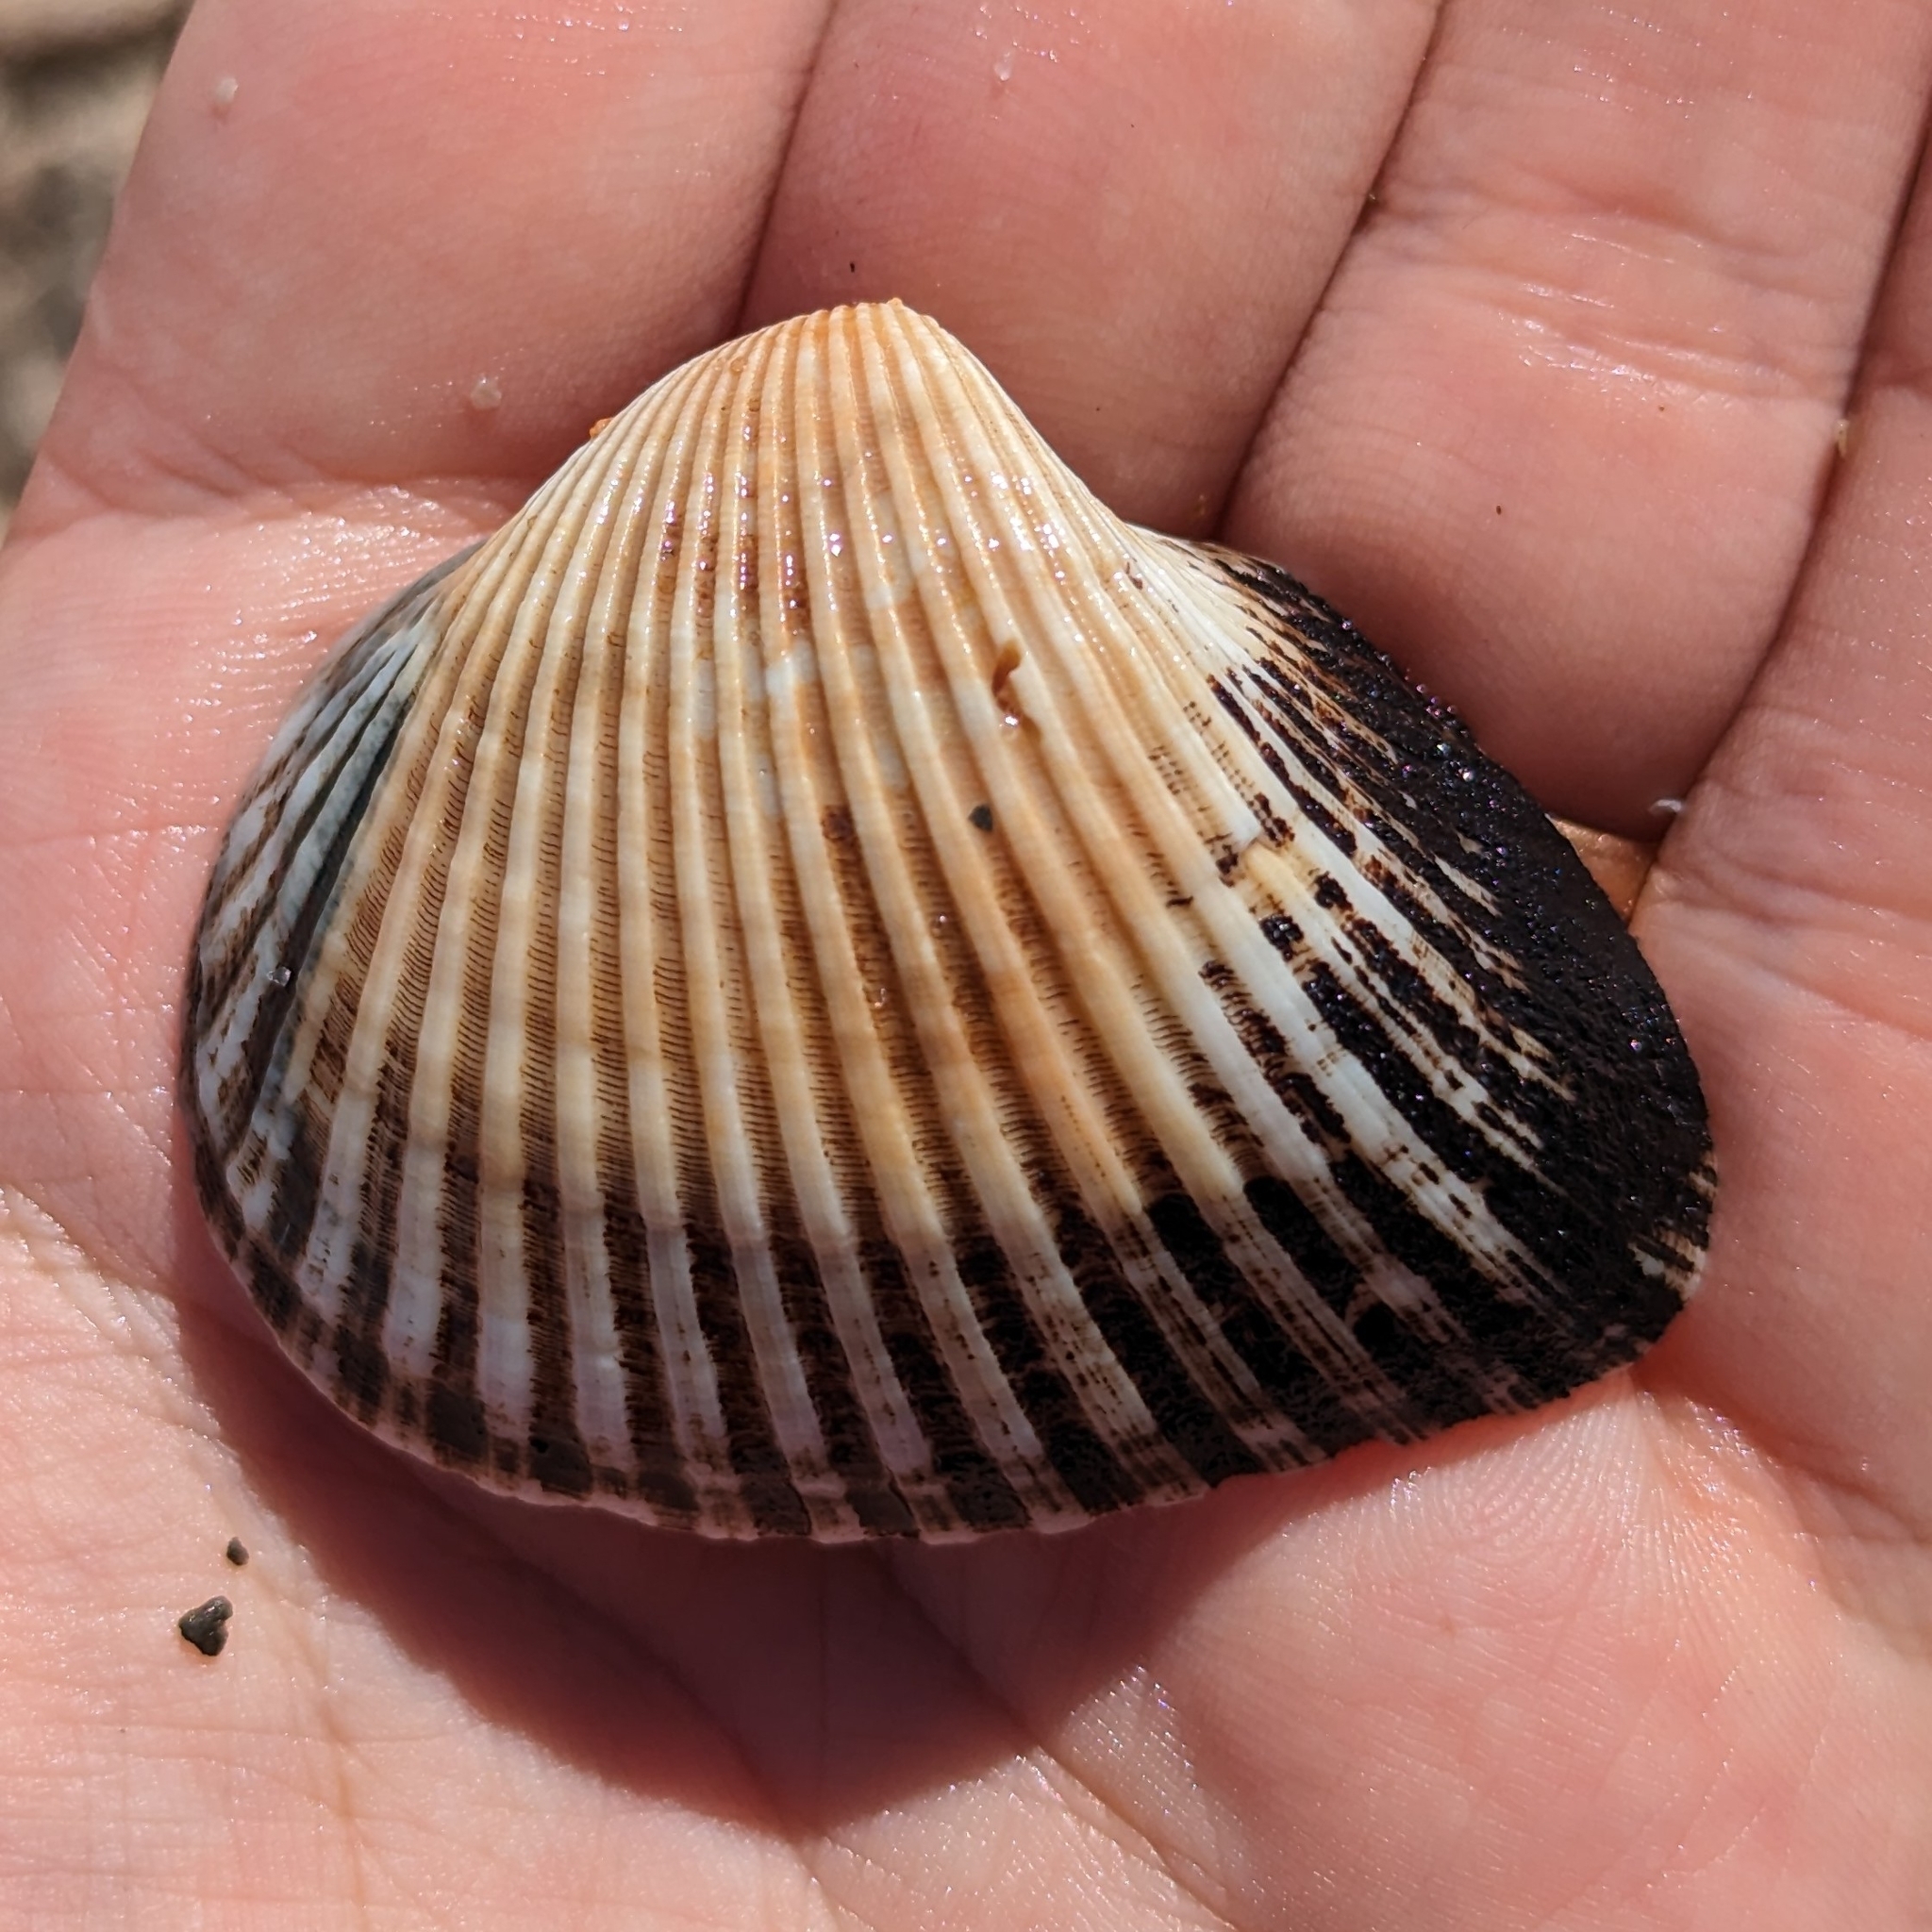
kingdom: Animalia
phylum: Mollusca
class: Bivalvia
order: Arcida
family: Noetiidae
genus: Noetia
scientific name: Noetia ponderosa
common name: Ponderous ark
